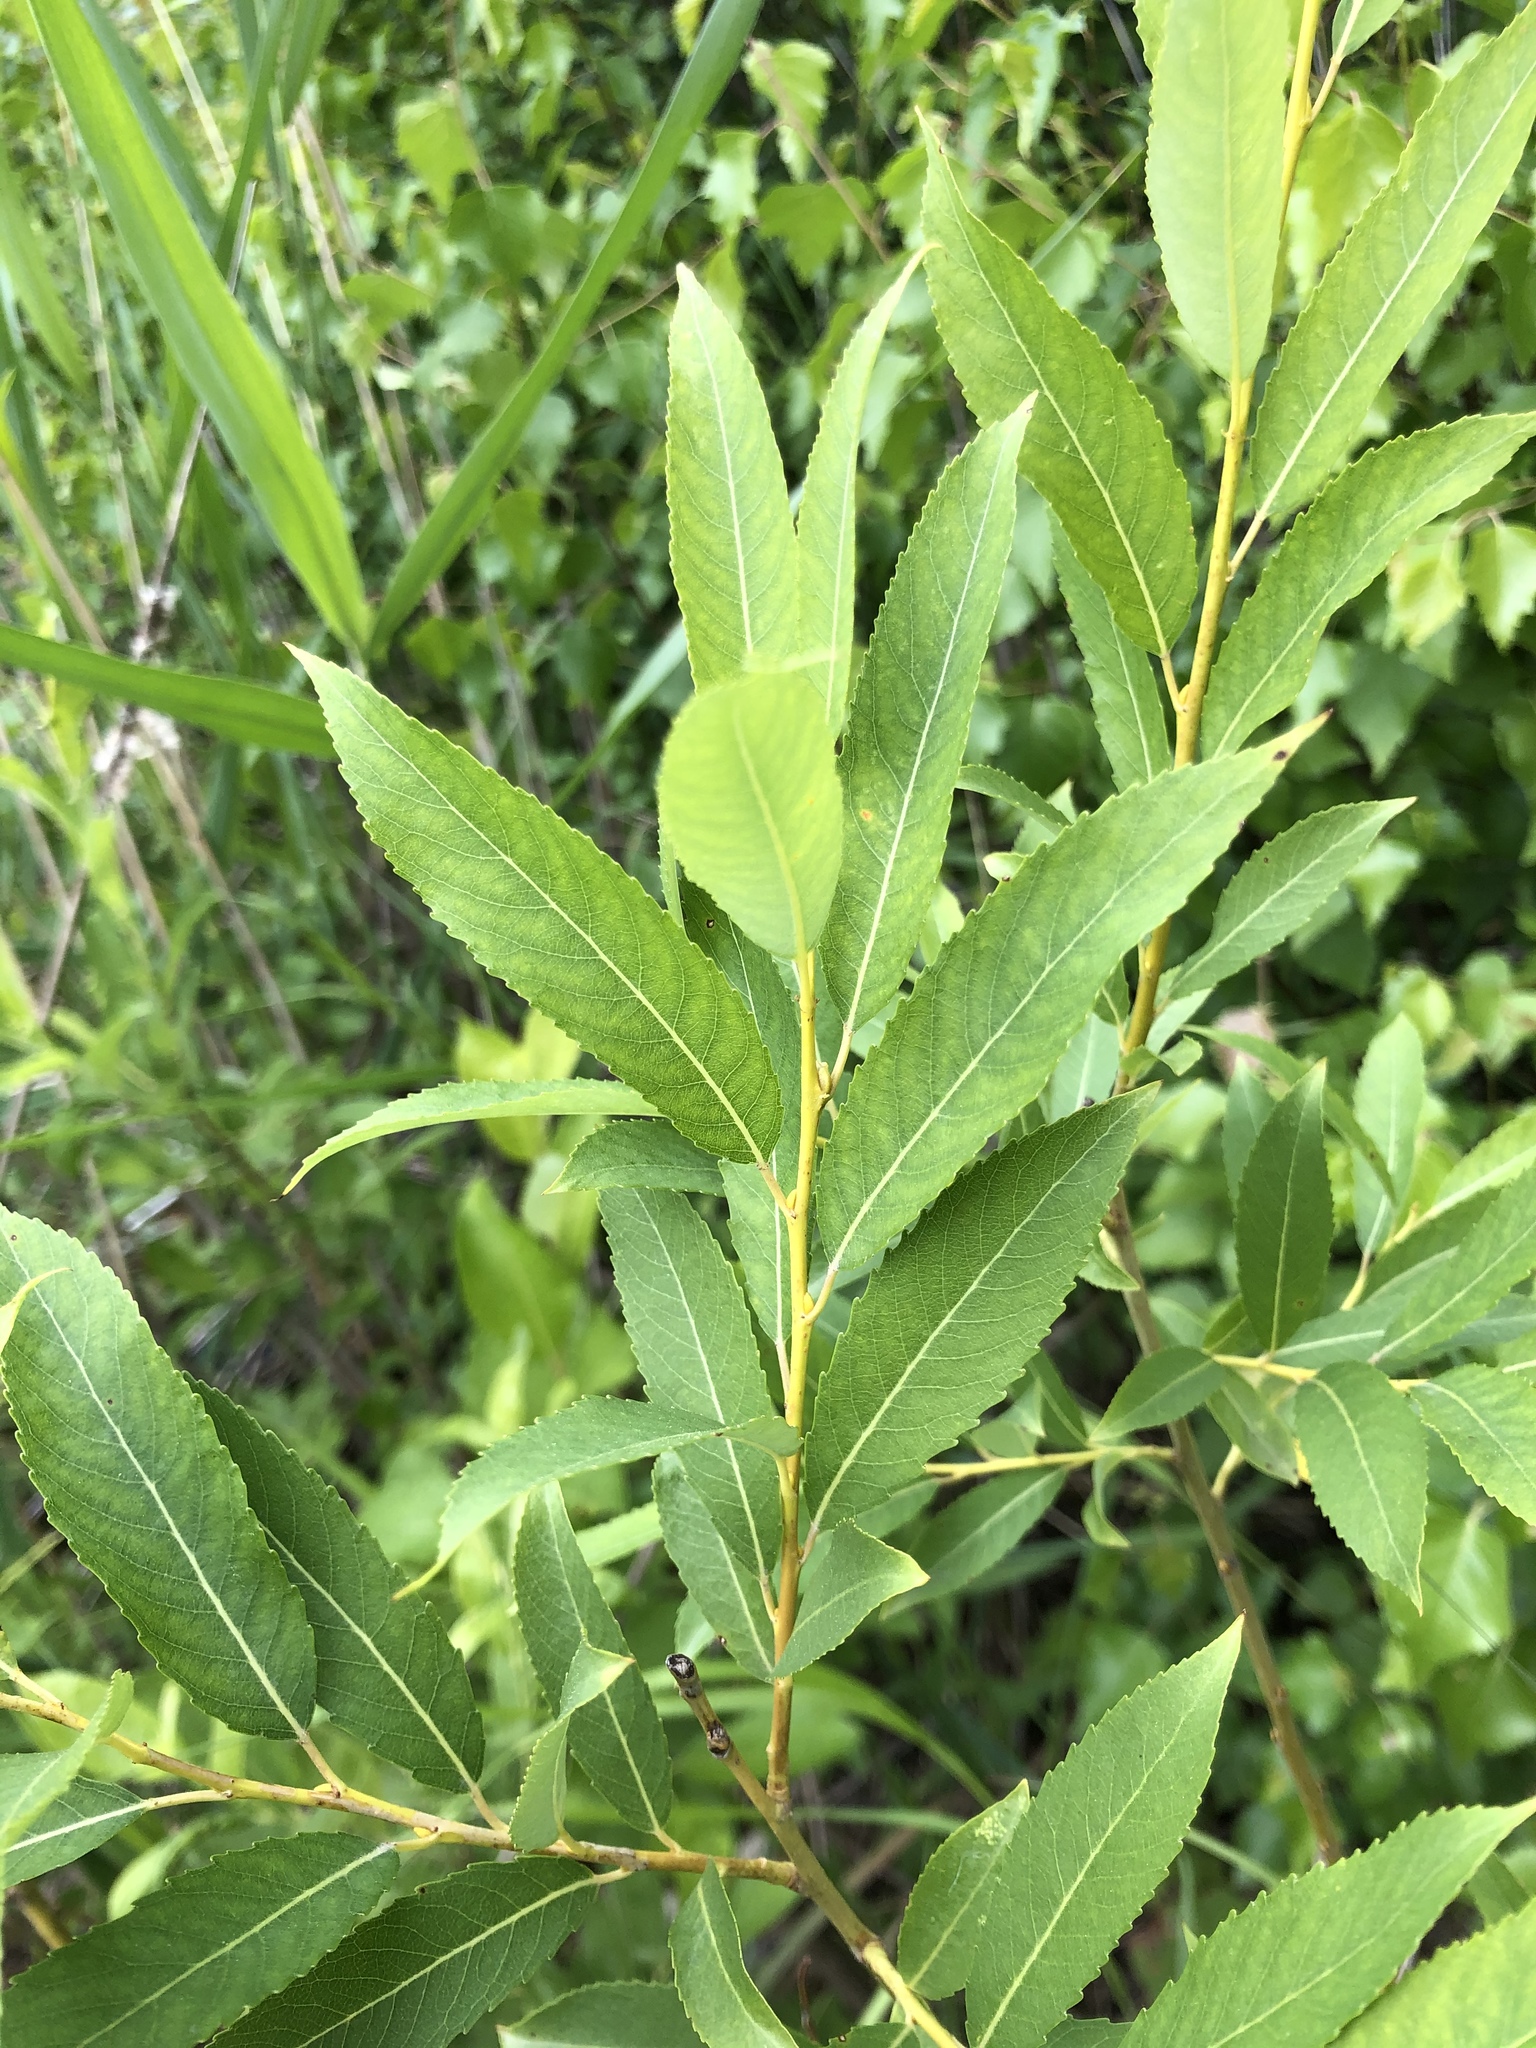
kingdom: Plantae
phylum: Tracheophyta
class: Magnoliopsida
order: Malpighiales
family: Salicaceae
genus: Salix
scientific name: Salix triandra
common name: Almond willow
